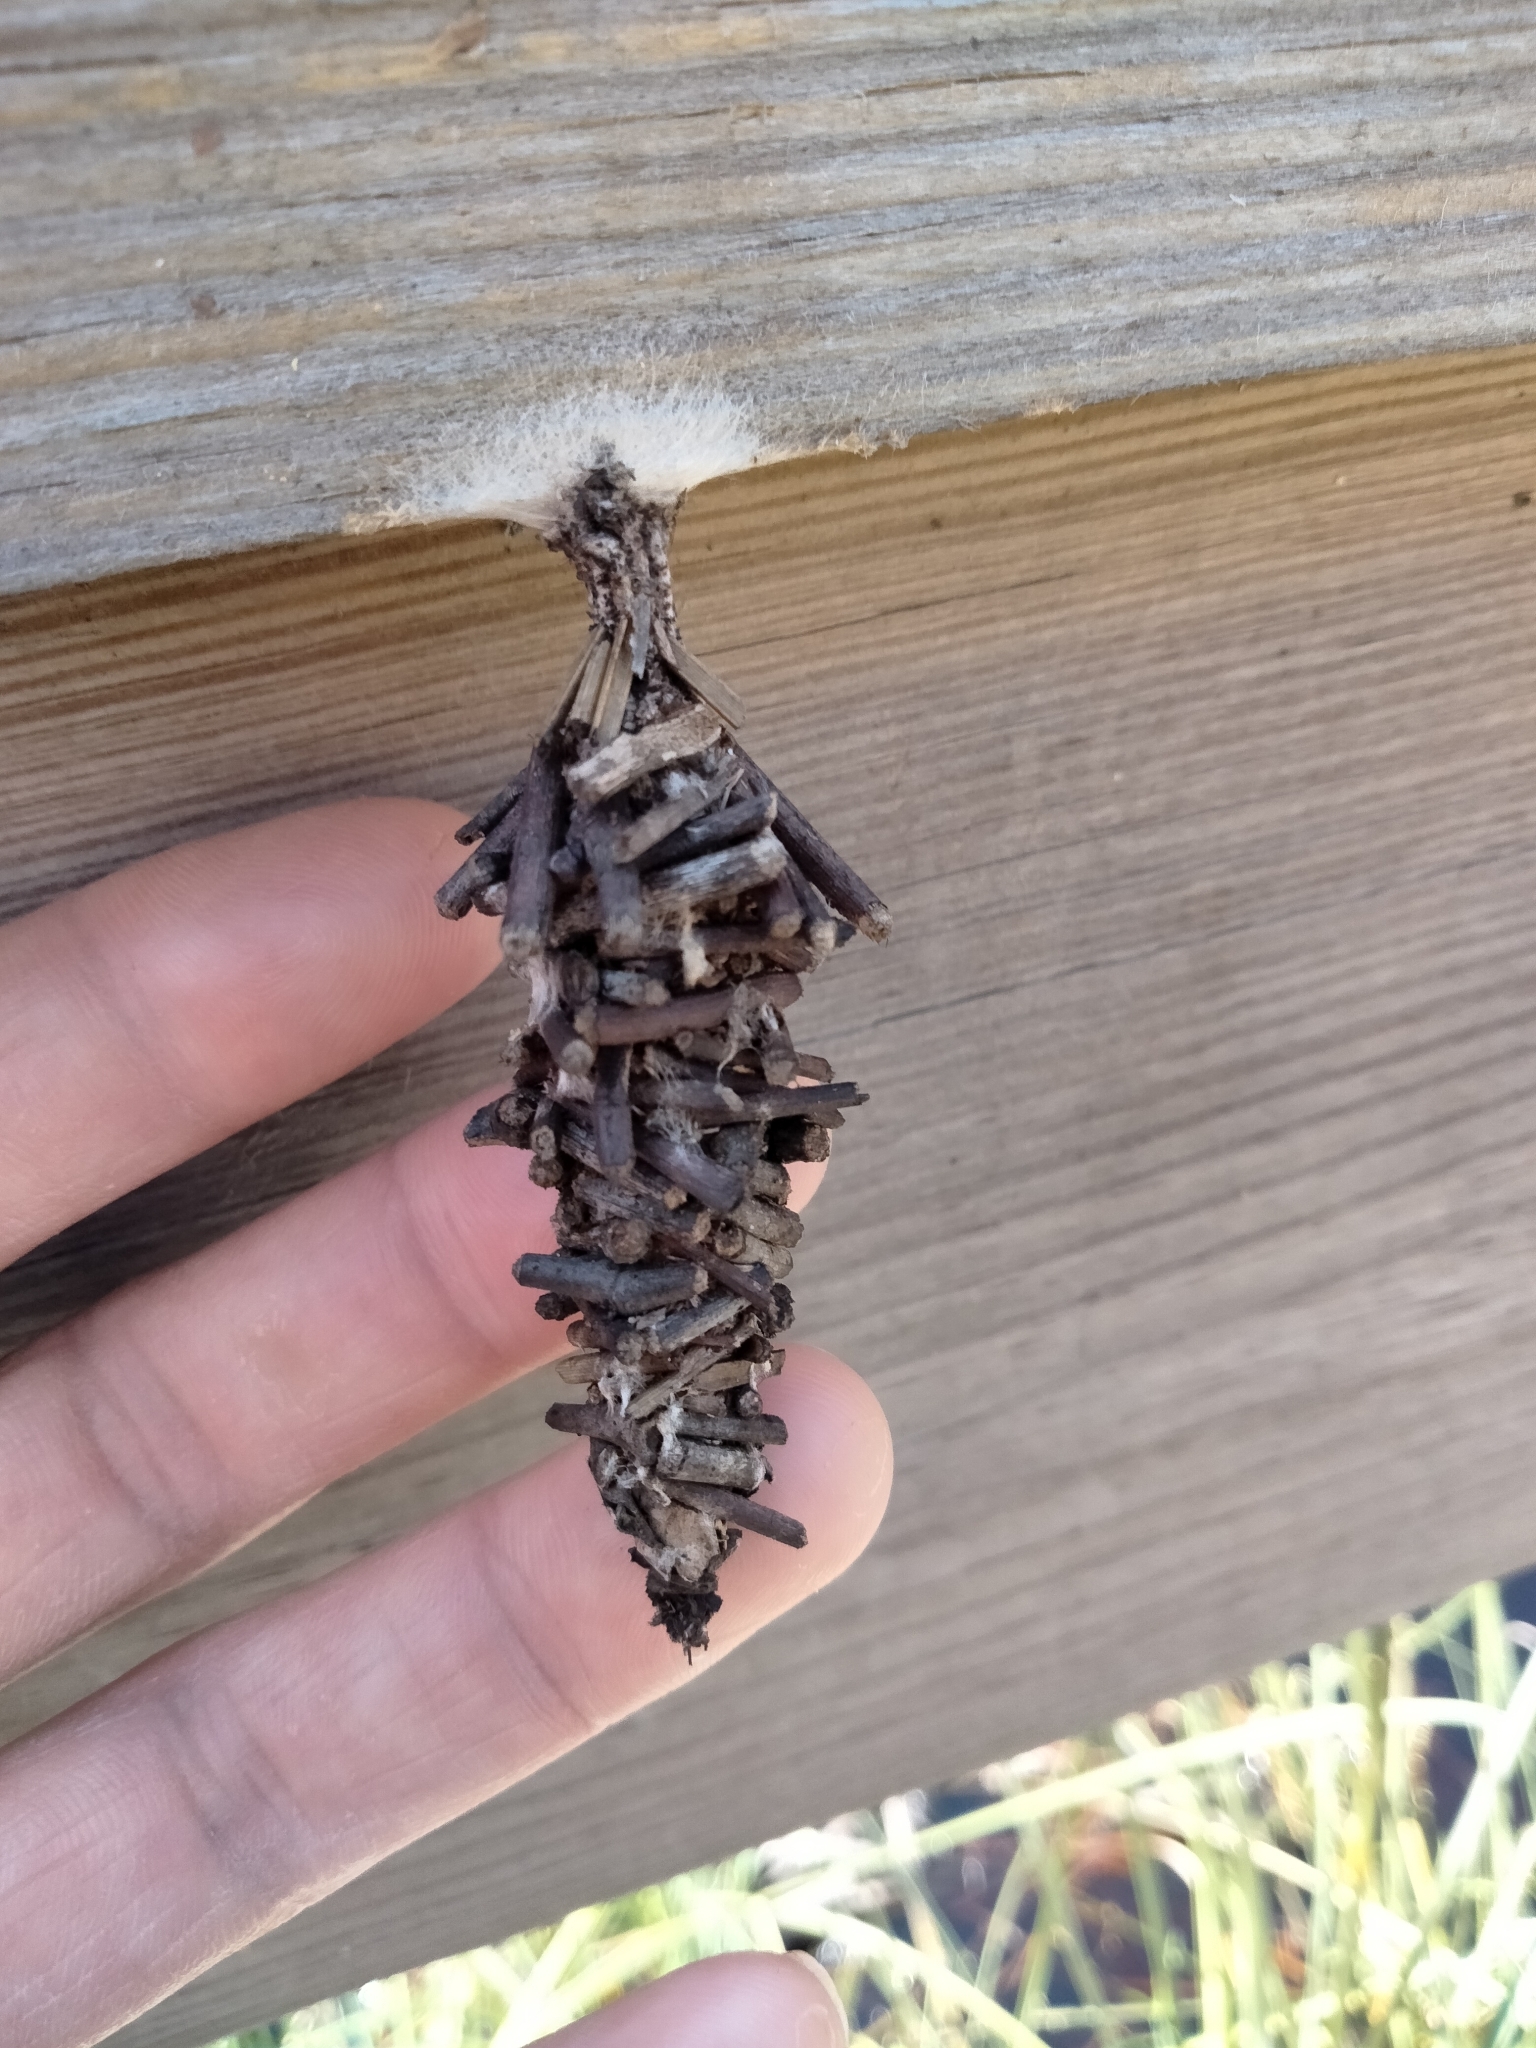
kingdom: Animalia
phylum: Arthropoda
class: Insecta
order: Lepidoptera
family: Psychidae
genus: Oiketicus
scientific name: Oiketicus
